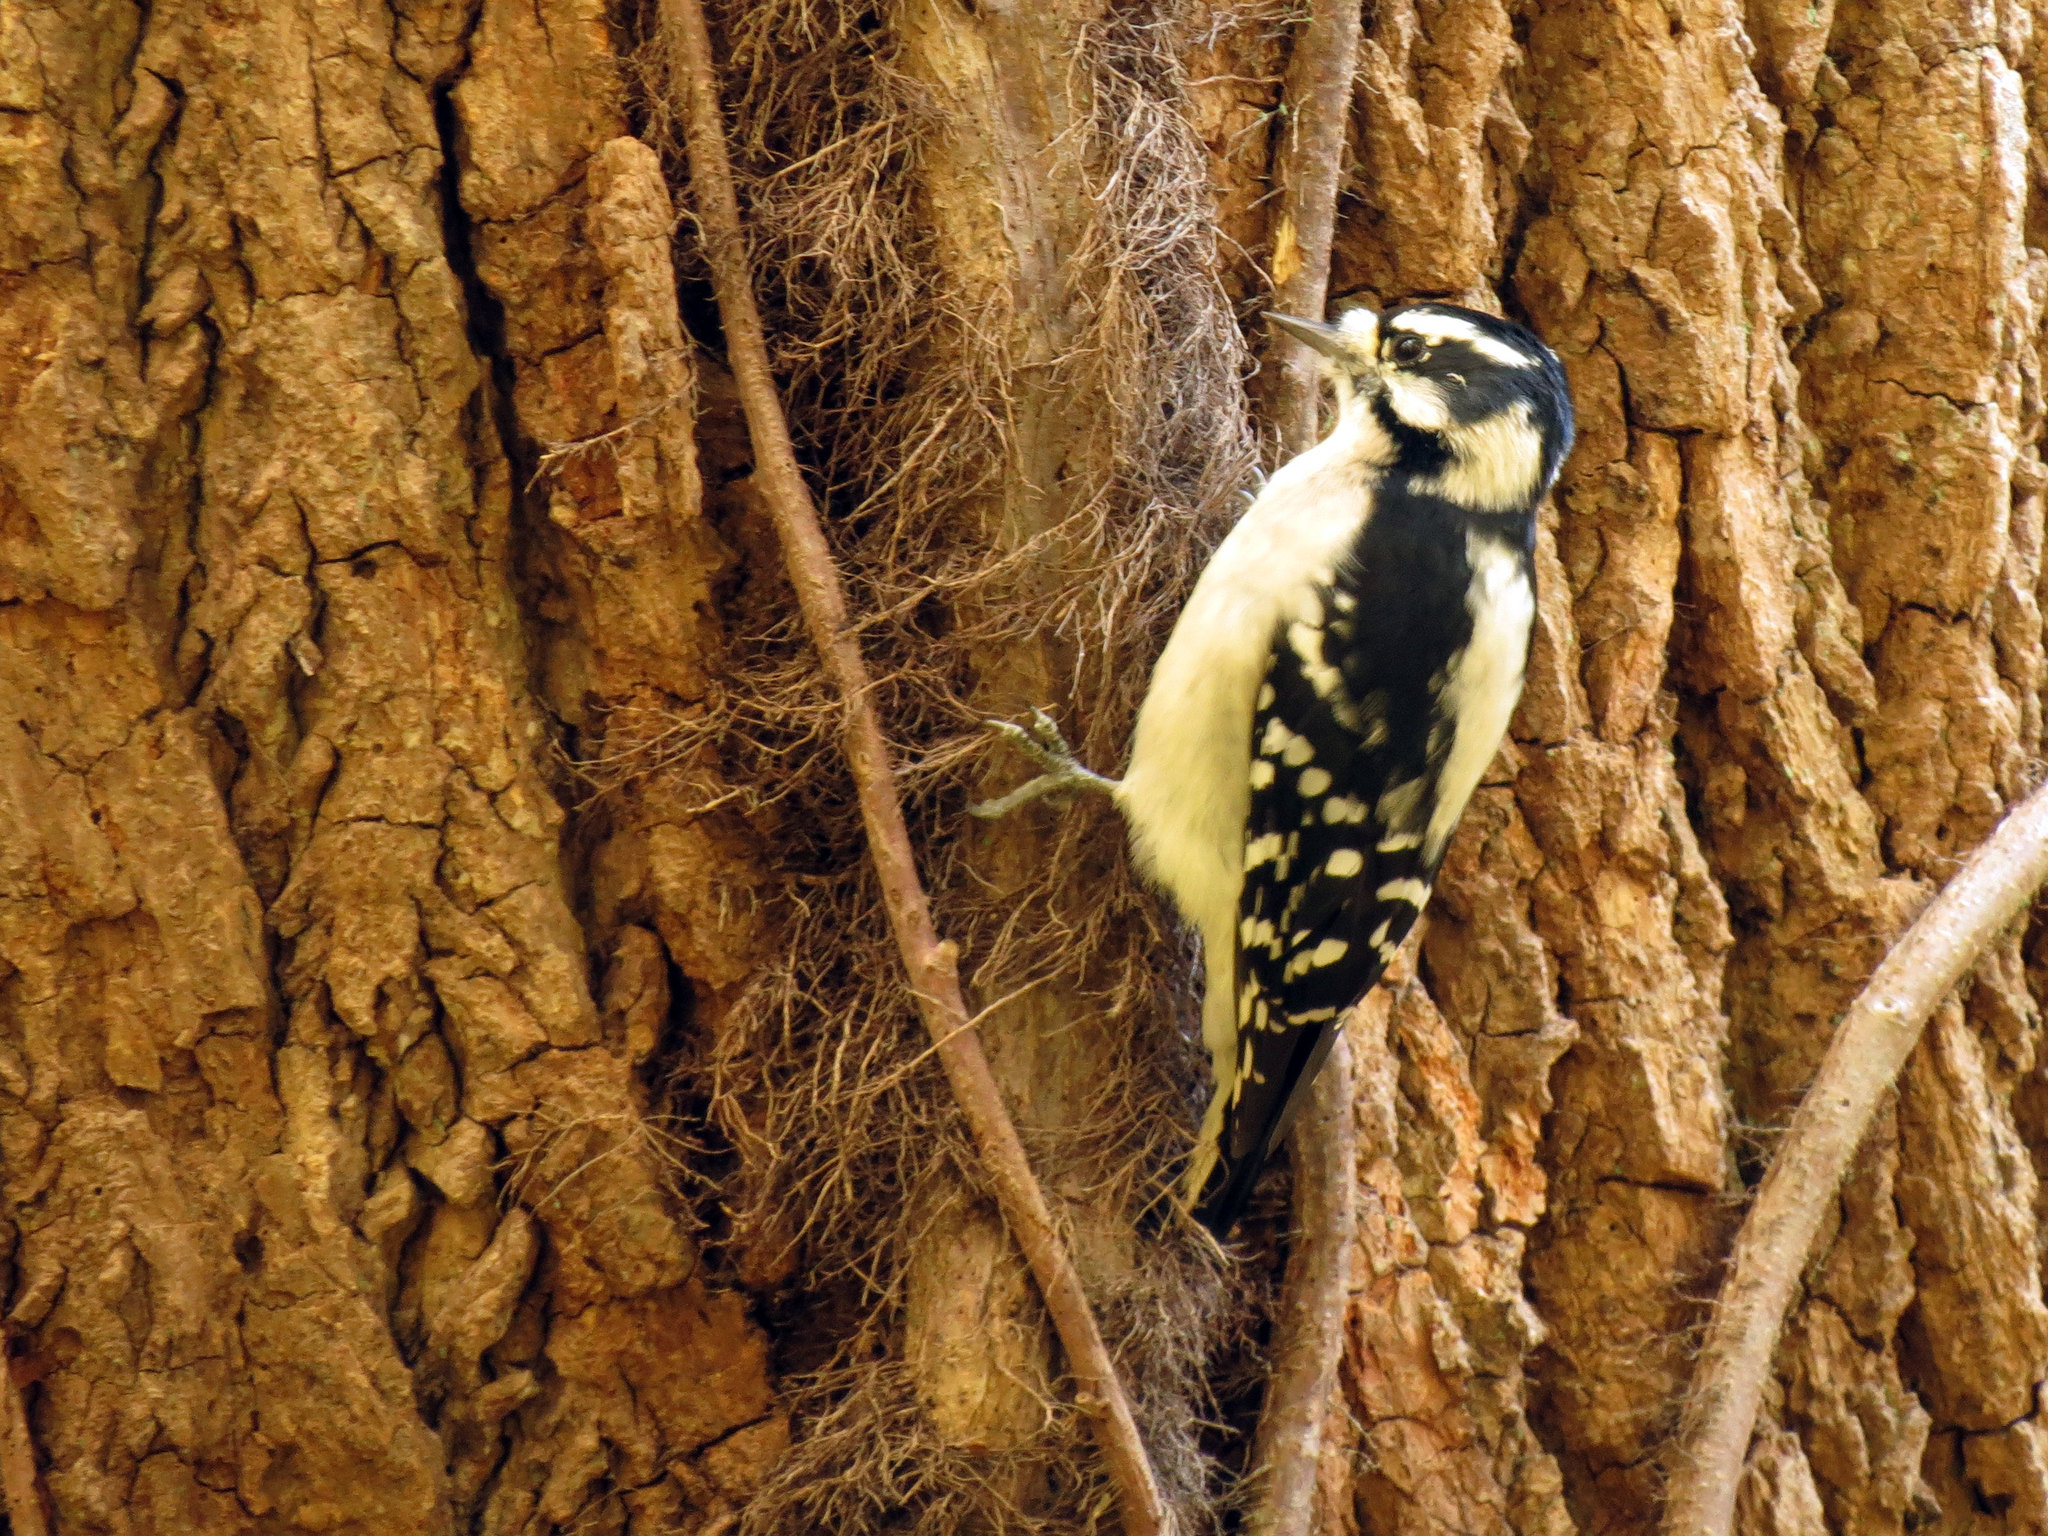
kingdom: Animalia
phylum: Chordata
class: Aves
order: Piciformes
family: Picidae
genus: Dryobates
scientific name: Dryobates pubescens
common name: Downy woodpecker
